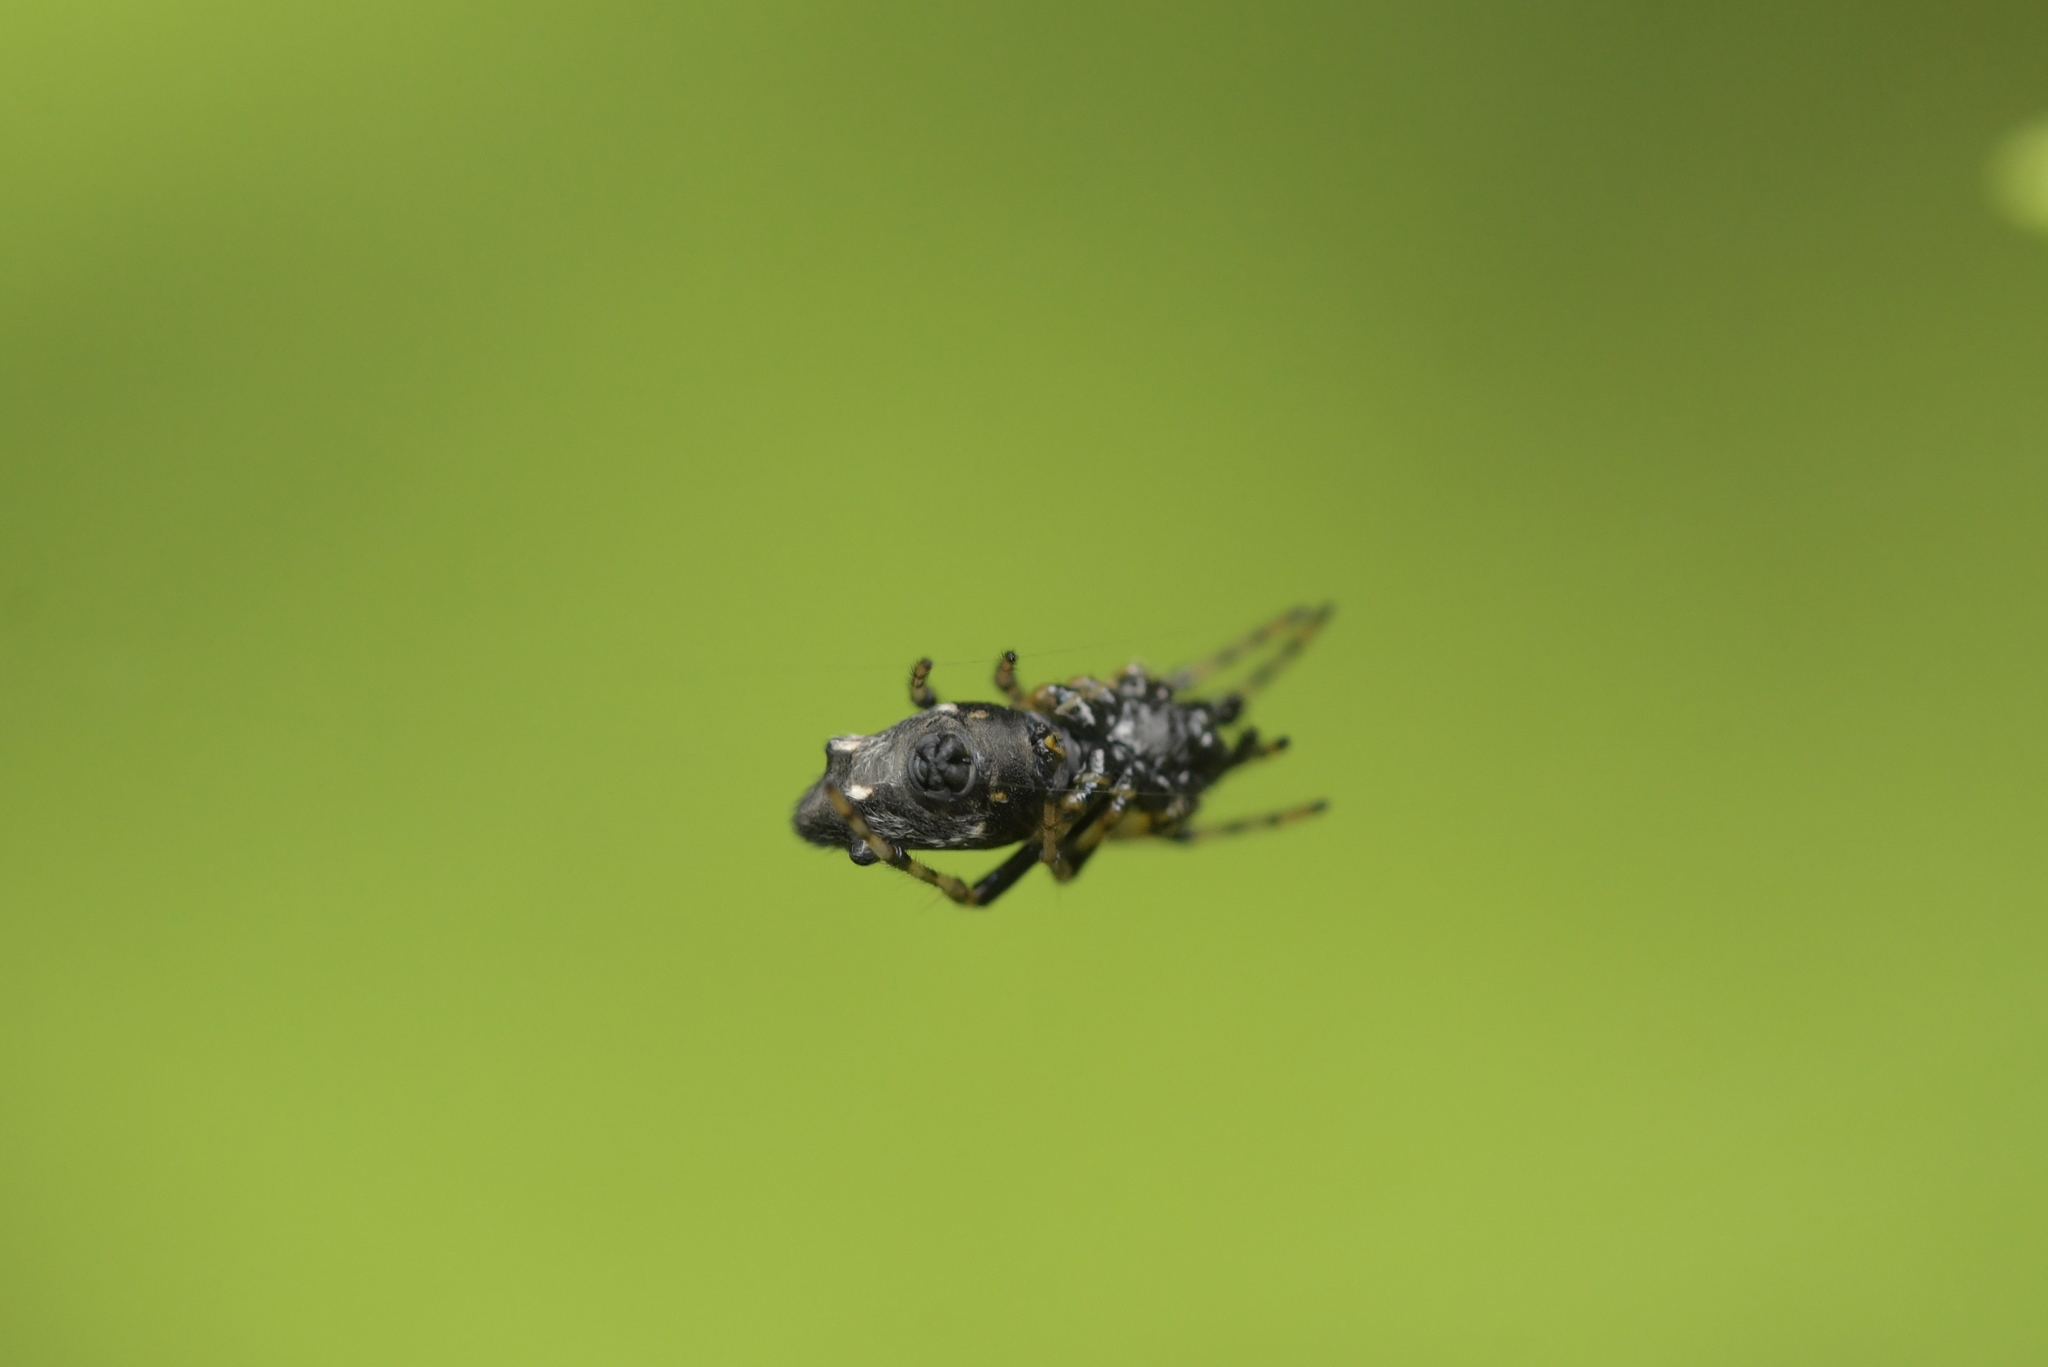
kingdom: Animalia
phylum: Arthropoda
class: Arachnida
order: Araneae
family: Araneidae
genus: Cyclosa
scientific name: Cyclosa trilobata
